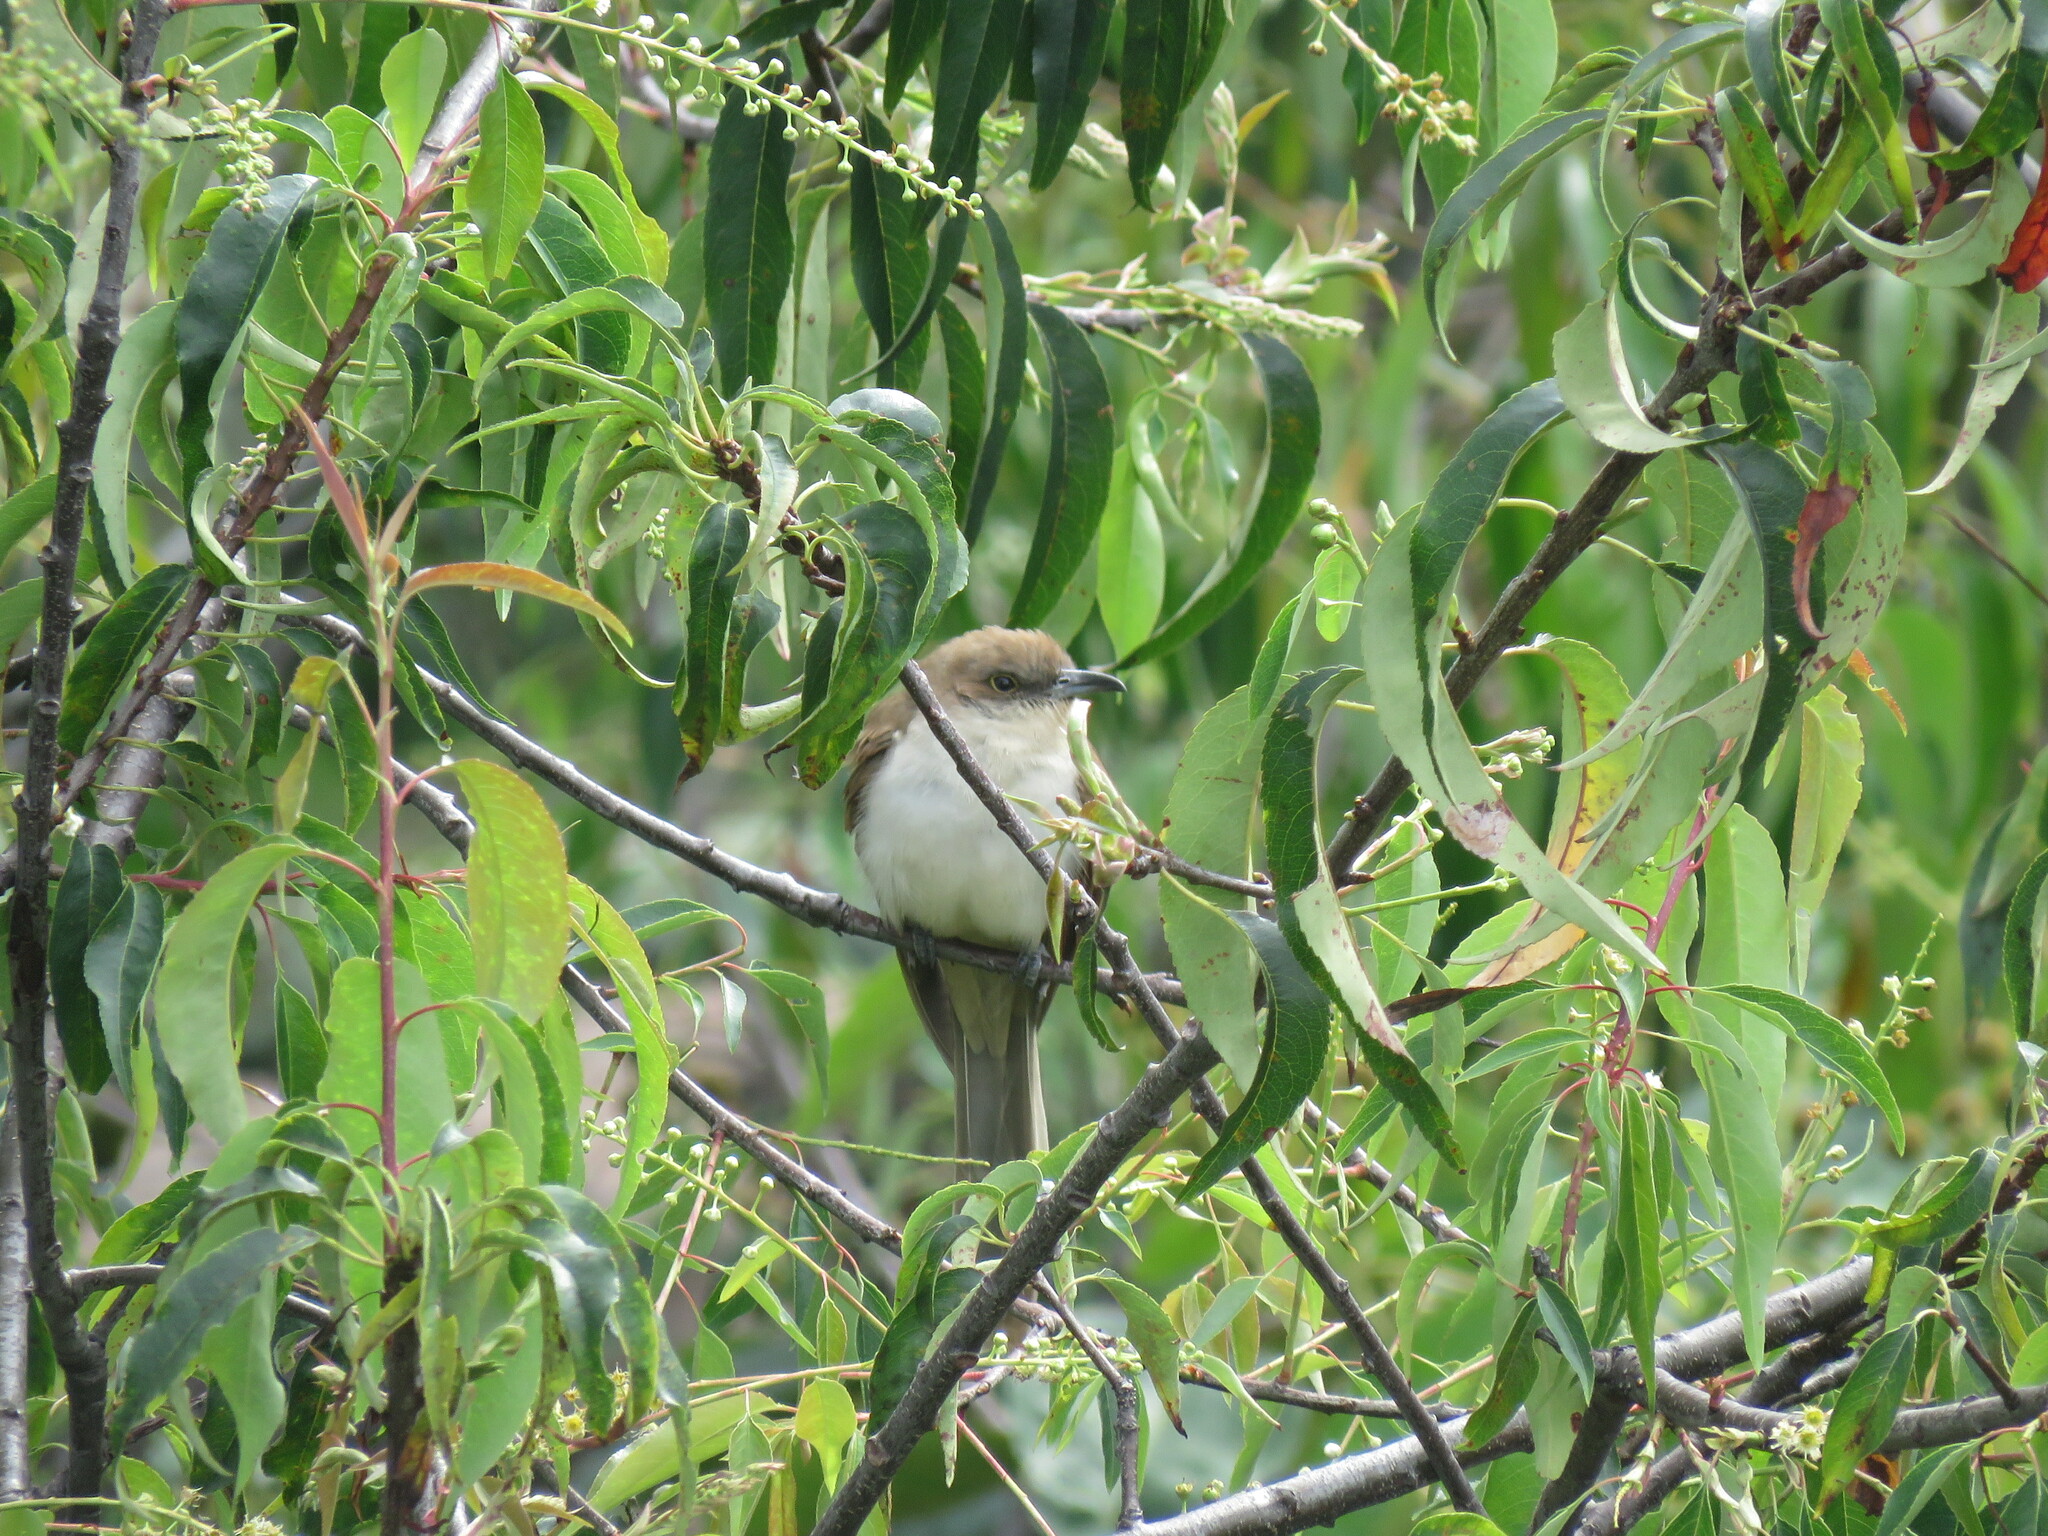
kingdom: Animalia
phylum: Chordata
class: Aves
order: Cuculiformes
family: Cuculidae
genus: Coccyzus
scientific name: Coccyzus erythropthalmus
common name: Black-billed cuckoo
